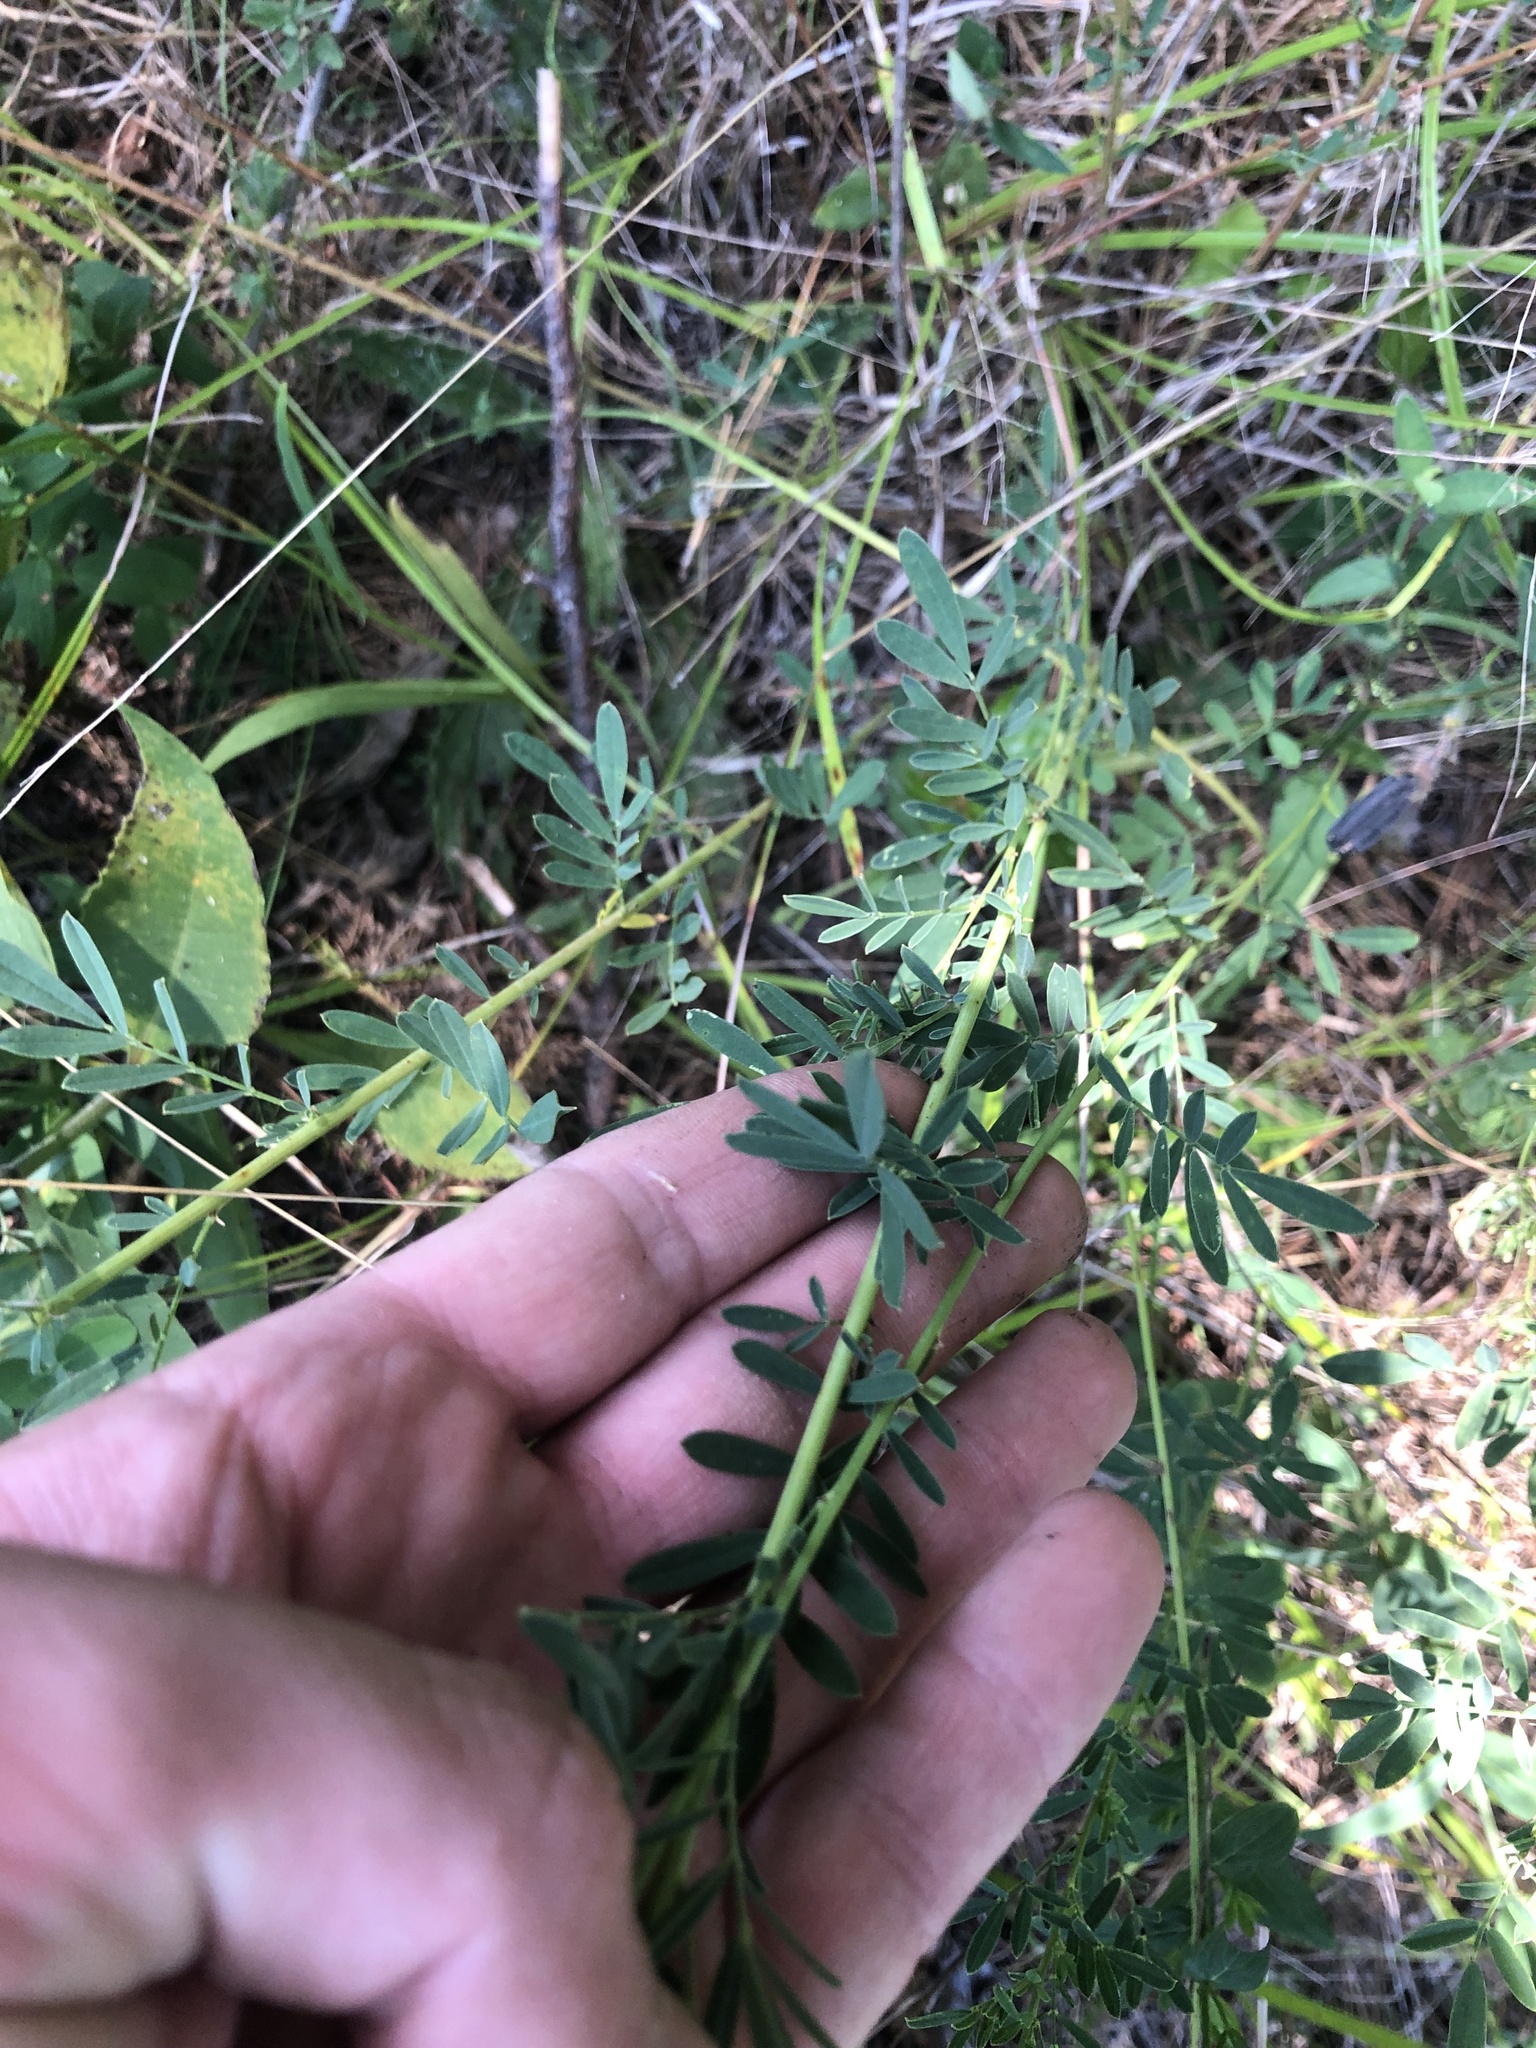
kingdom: Plantae
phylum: Tracheophyta
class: Magnoliopsida
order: Fabales
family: Fabaceae
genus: Dalea
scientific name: Dalea candida
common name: White prairie-clover
